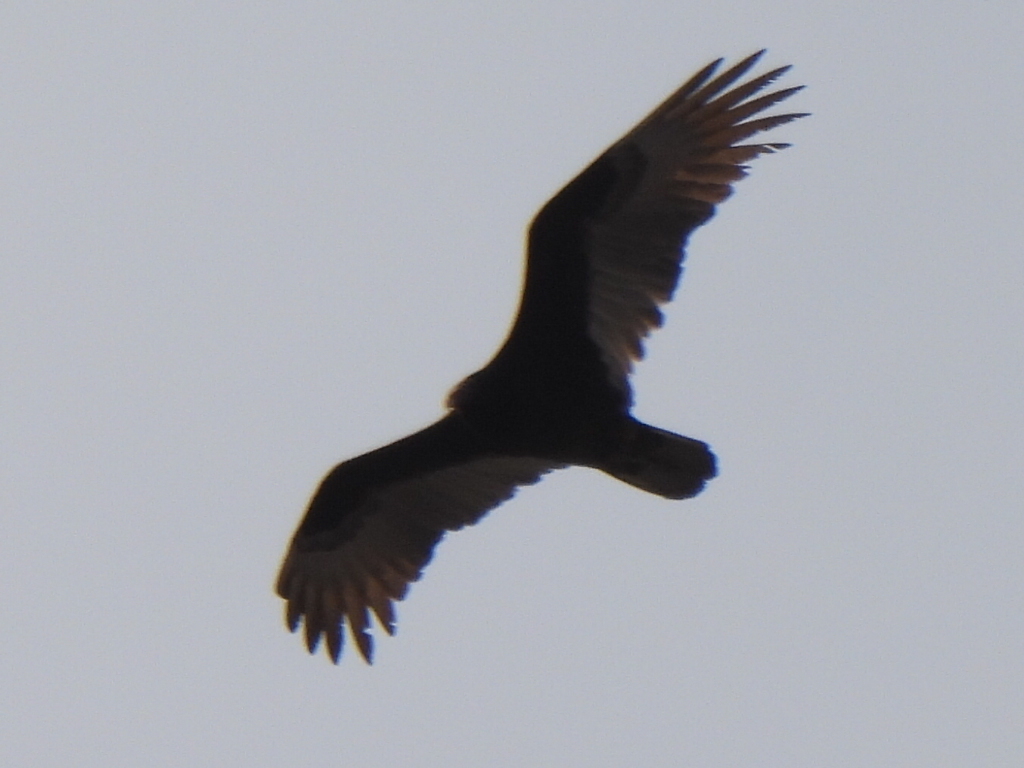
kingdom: Animalia
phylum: Chordata
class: Aves
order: Accipitriformes
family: Cathartidae
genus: Cathartes
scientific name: Cathartes aura
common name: Turkey vulture
